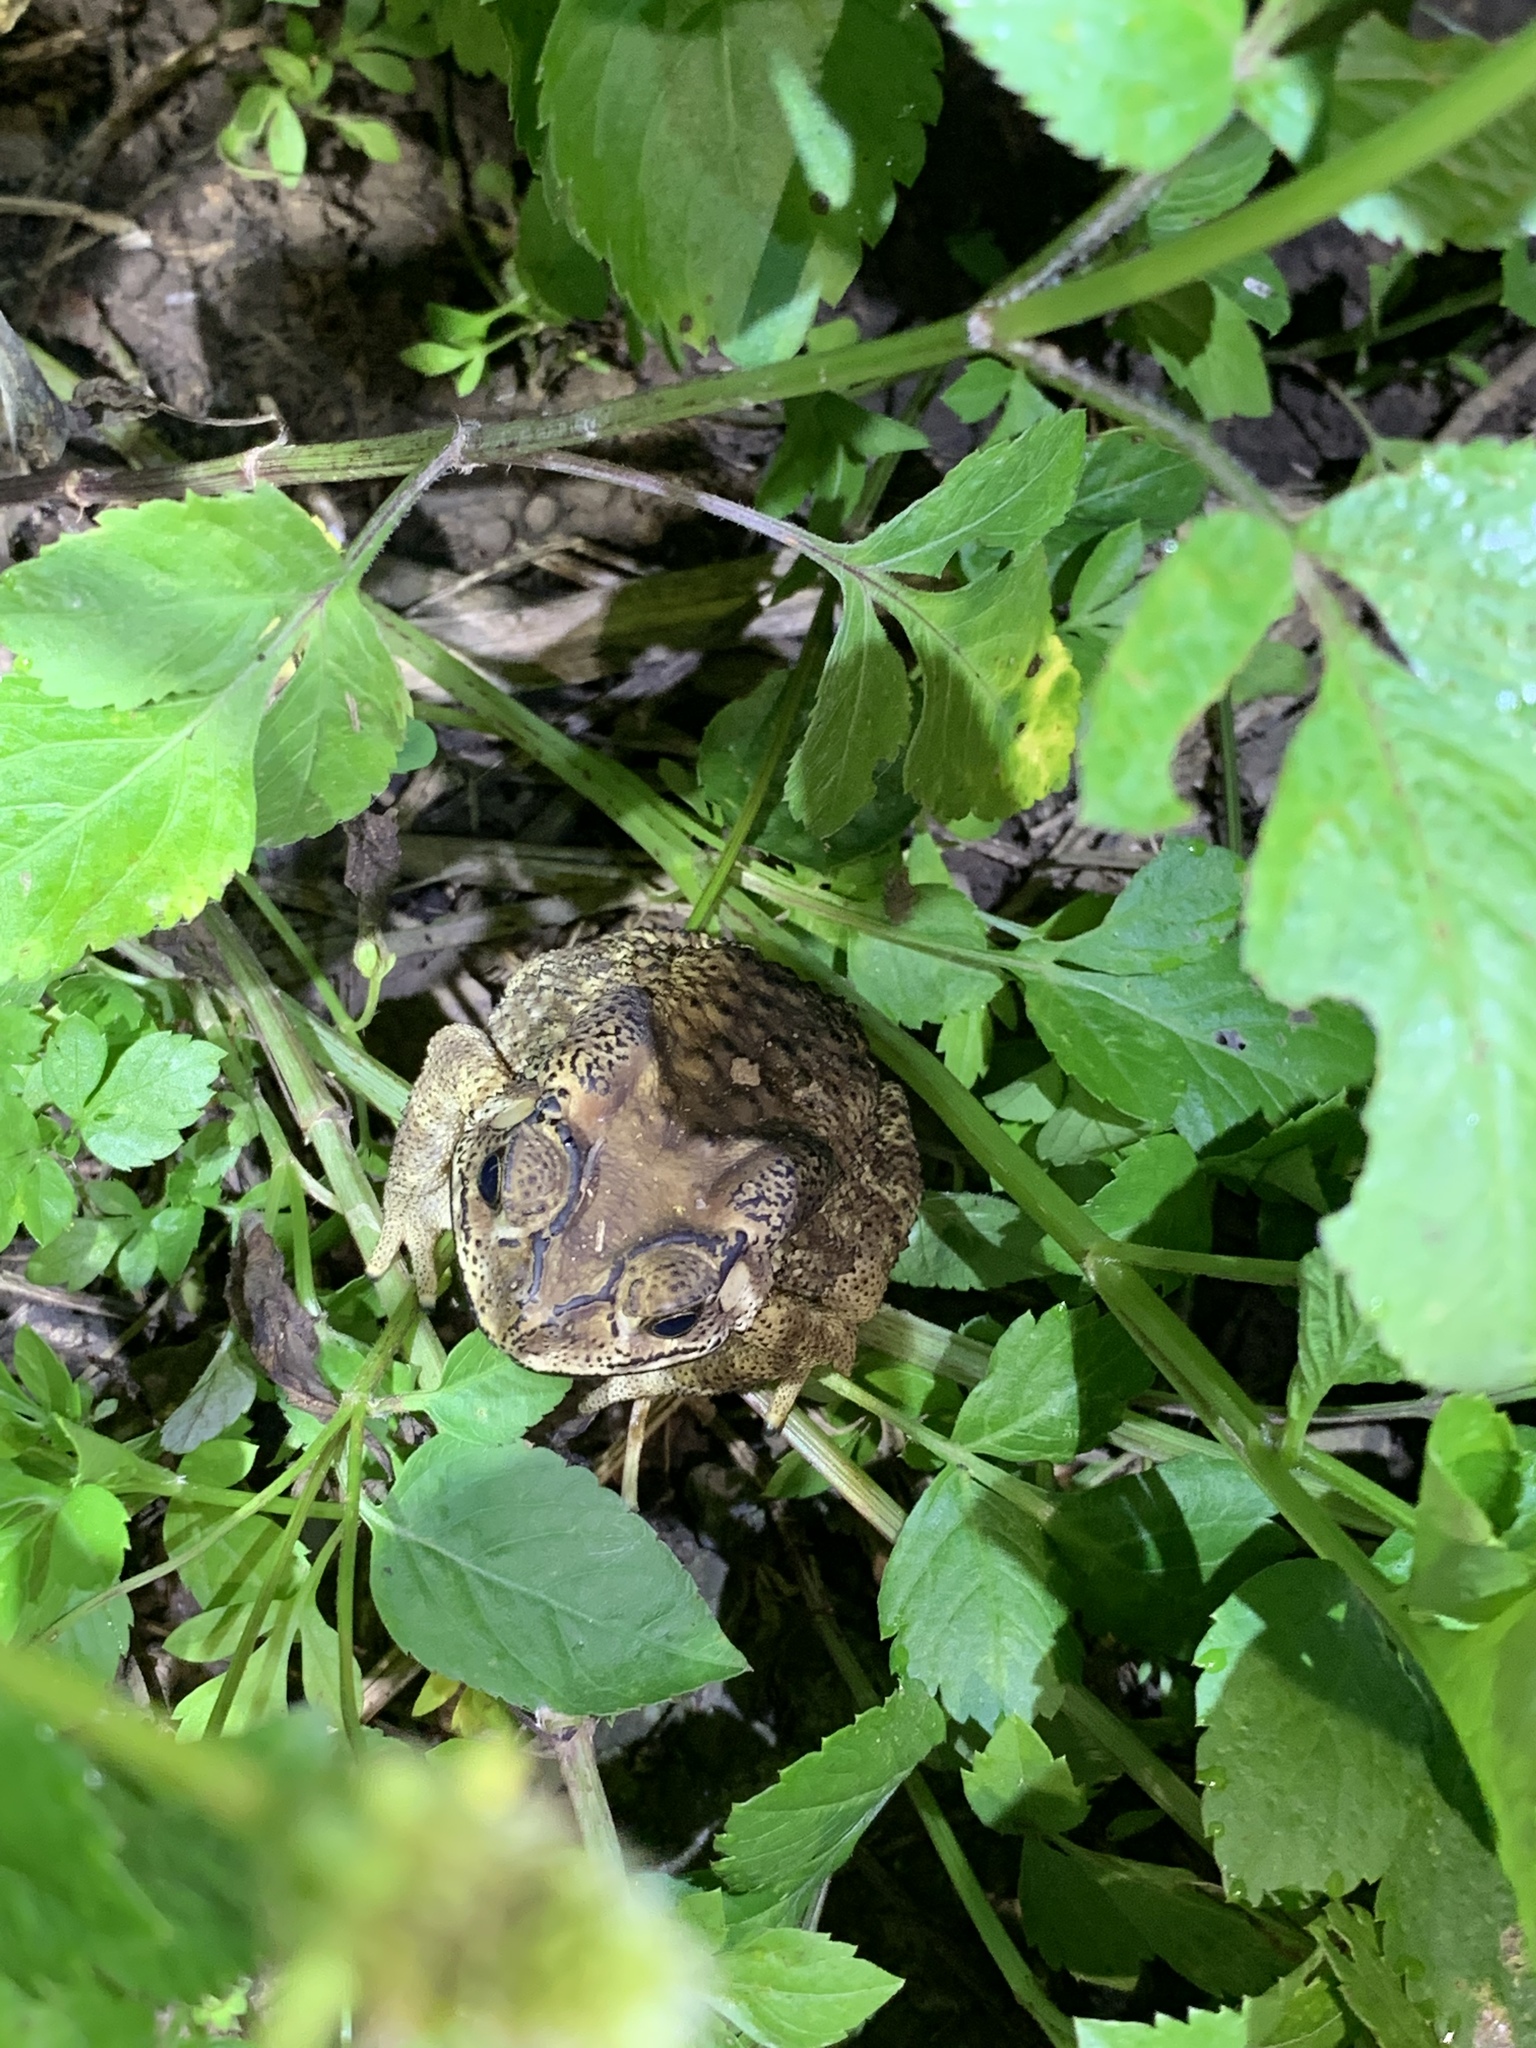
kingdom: Animalia
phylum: Chordata
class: Amphibia
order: Anura
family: Bufonidae
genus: Duttaphrynus
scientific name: Duttaphrynus melanostictus
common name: Common sunda toad
